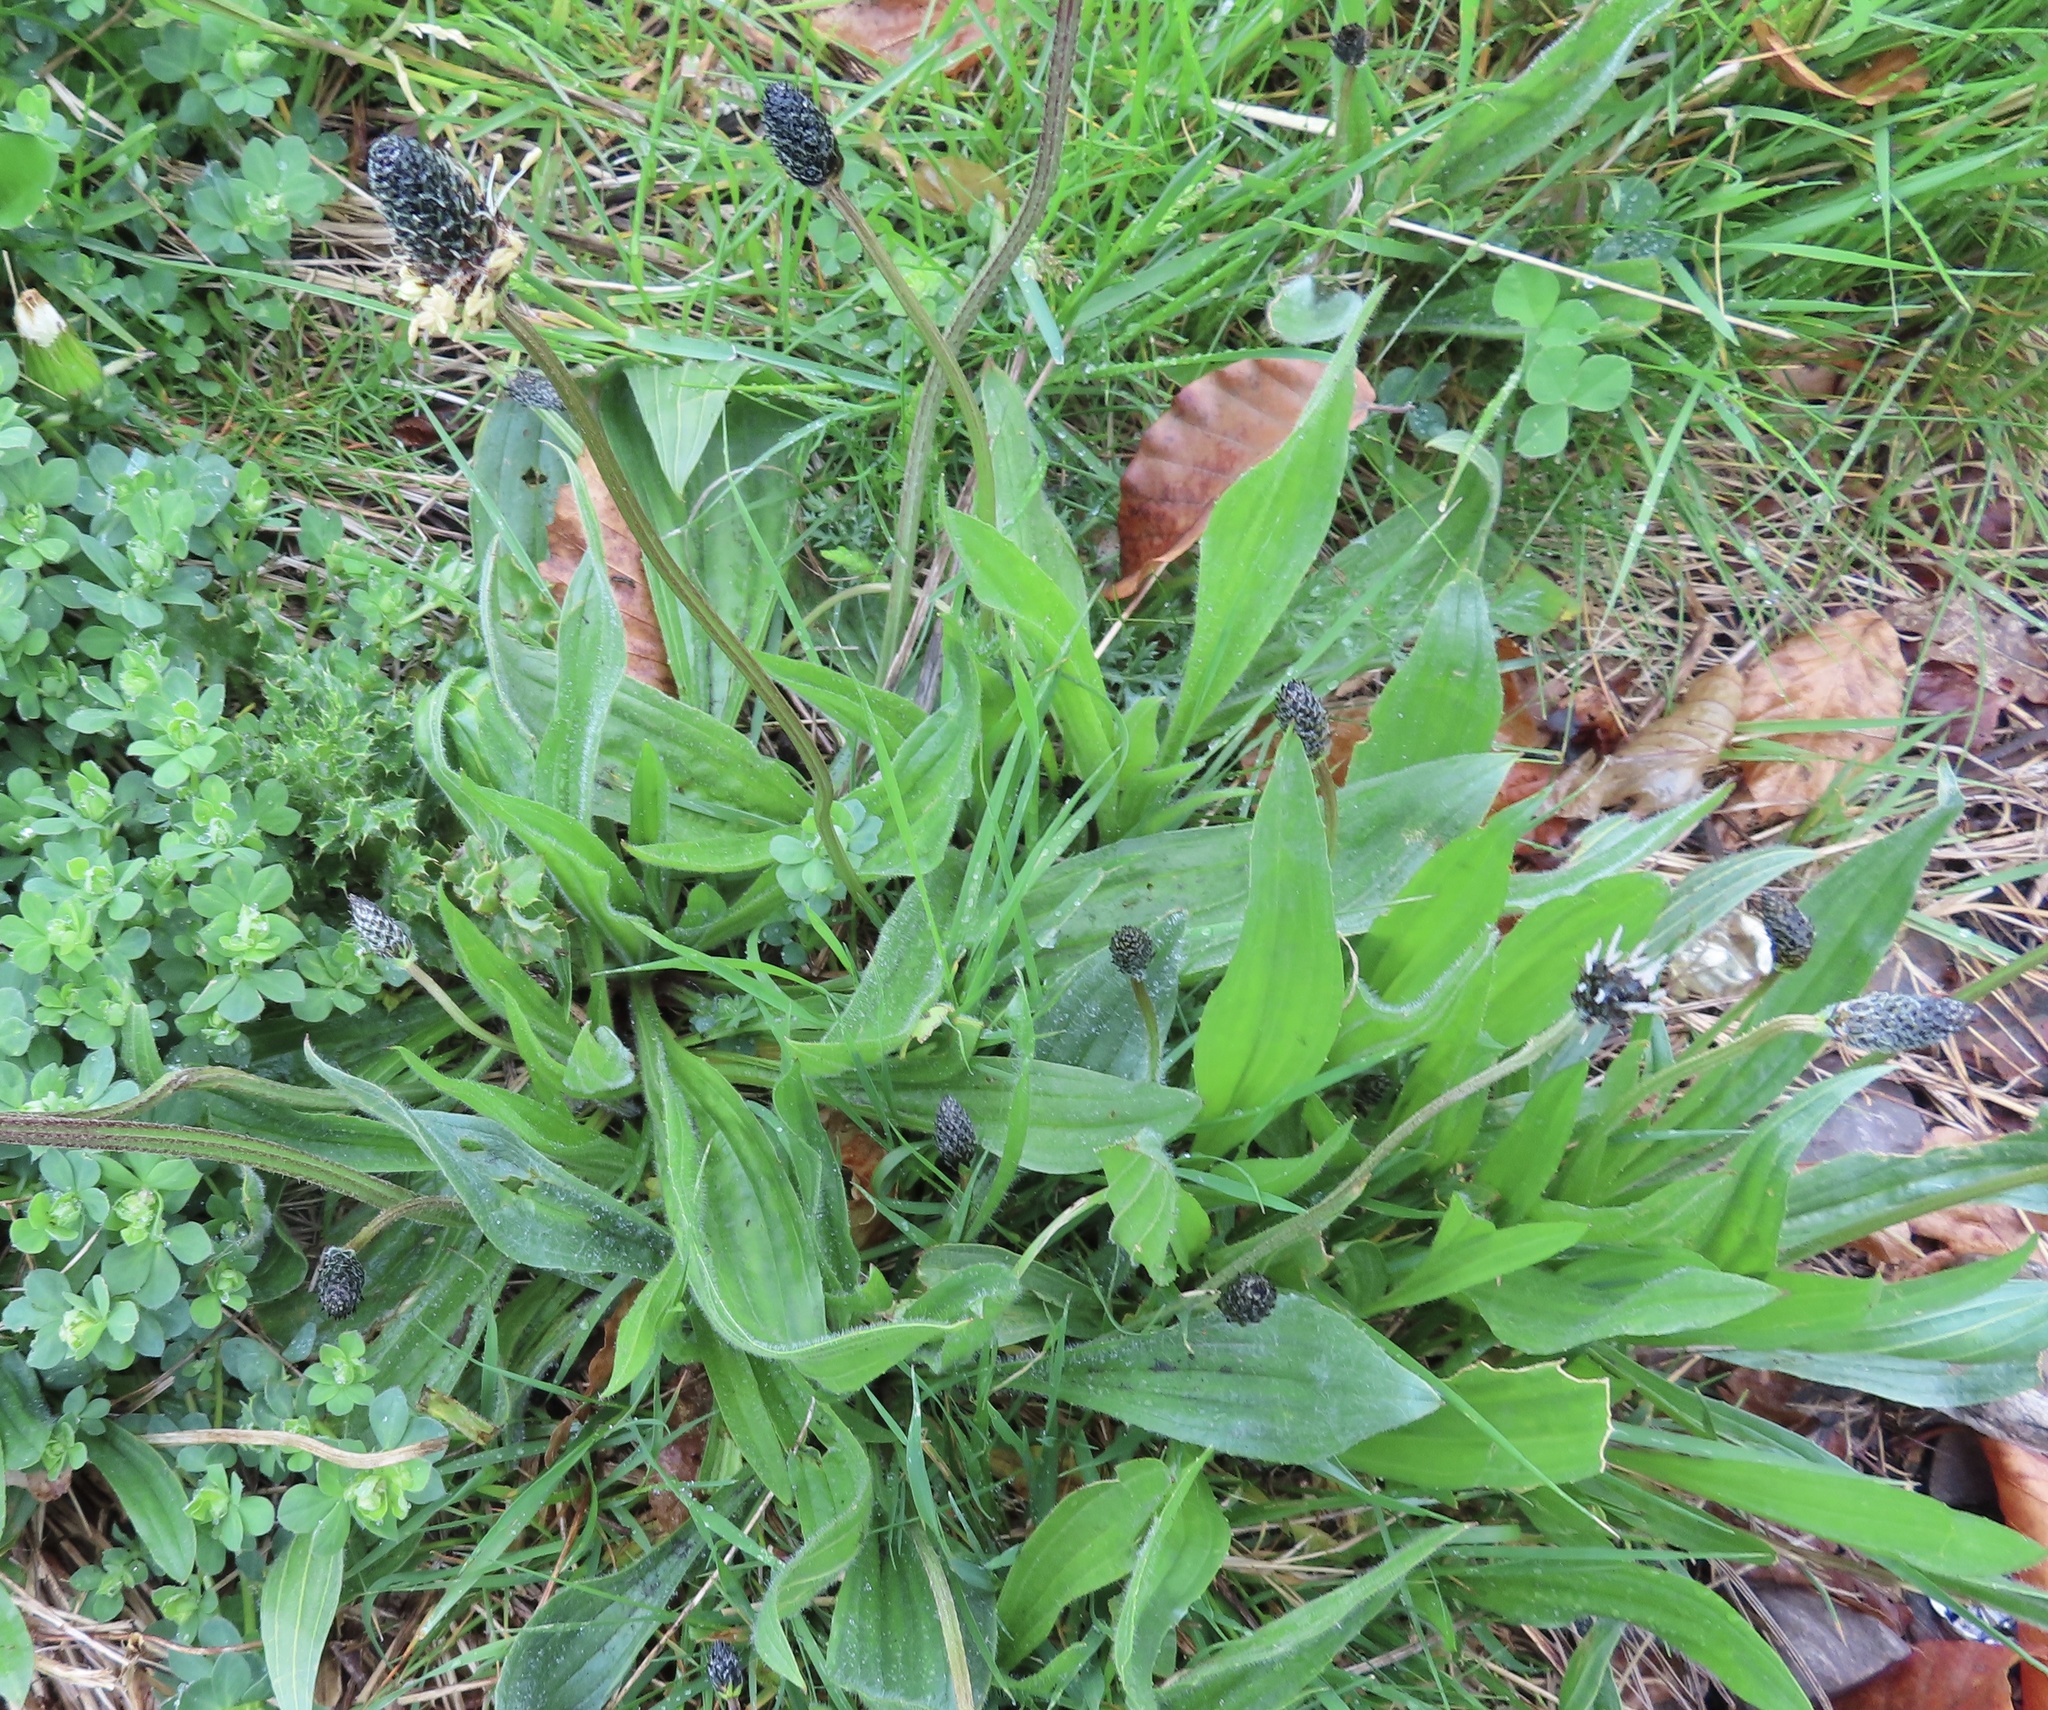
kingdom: Plantae
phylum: Tracheophyta
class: Magnoliopsida
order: Lamiales
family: Plantaginaceae
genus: Plantago
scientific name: Plantago lanceolata
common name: Ribwort plantain
